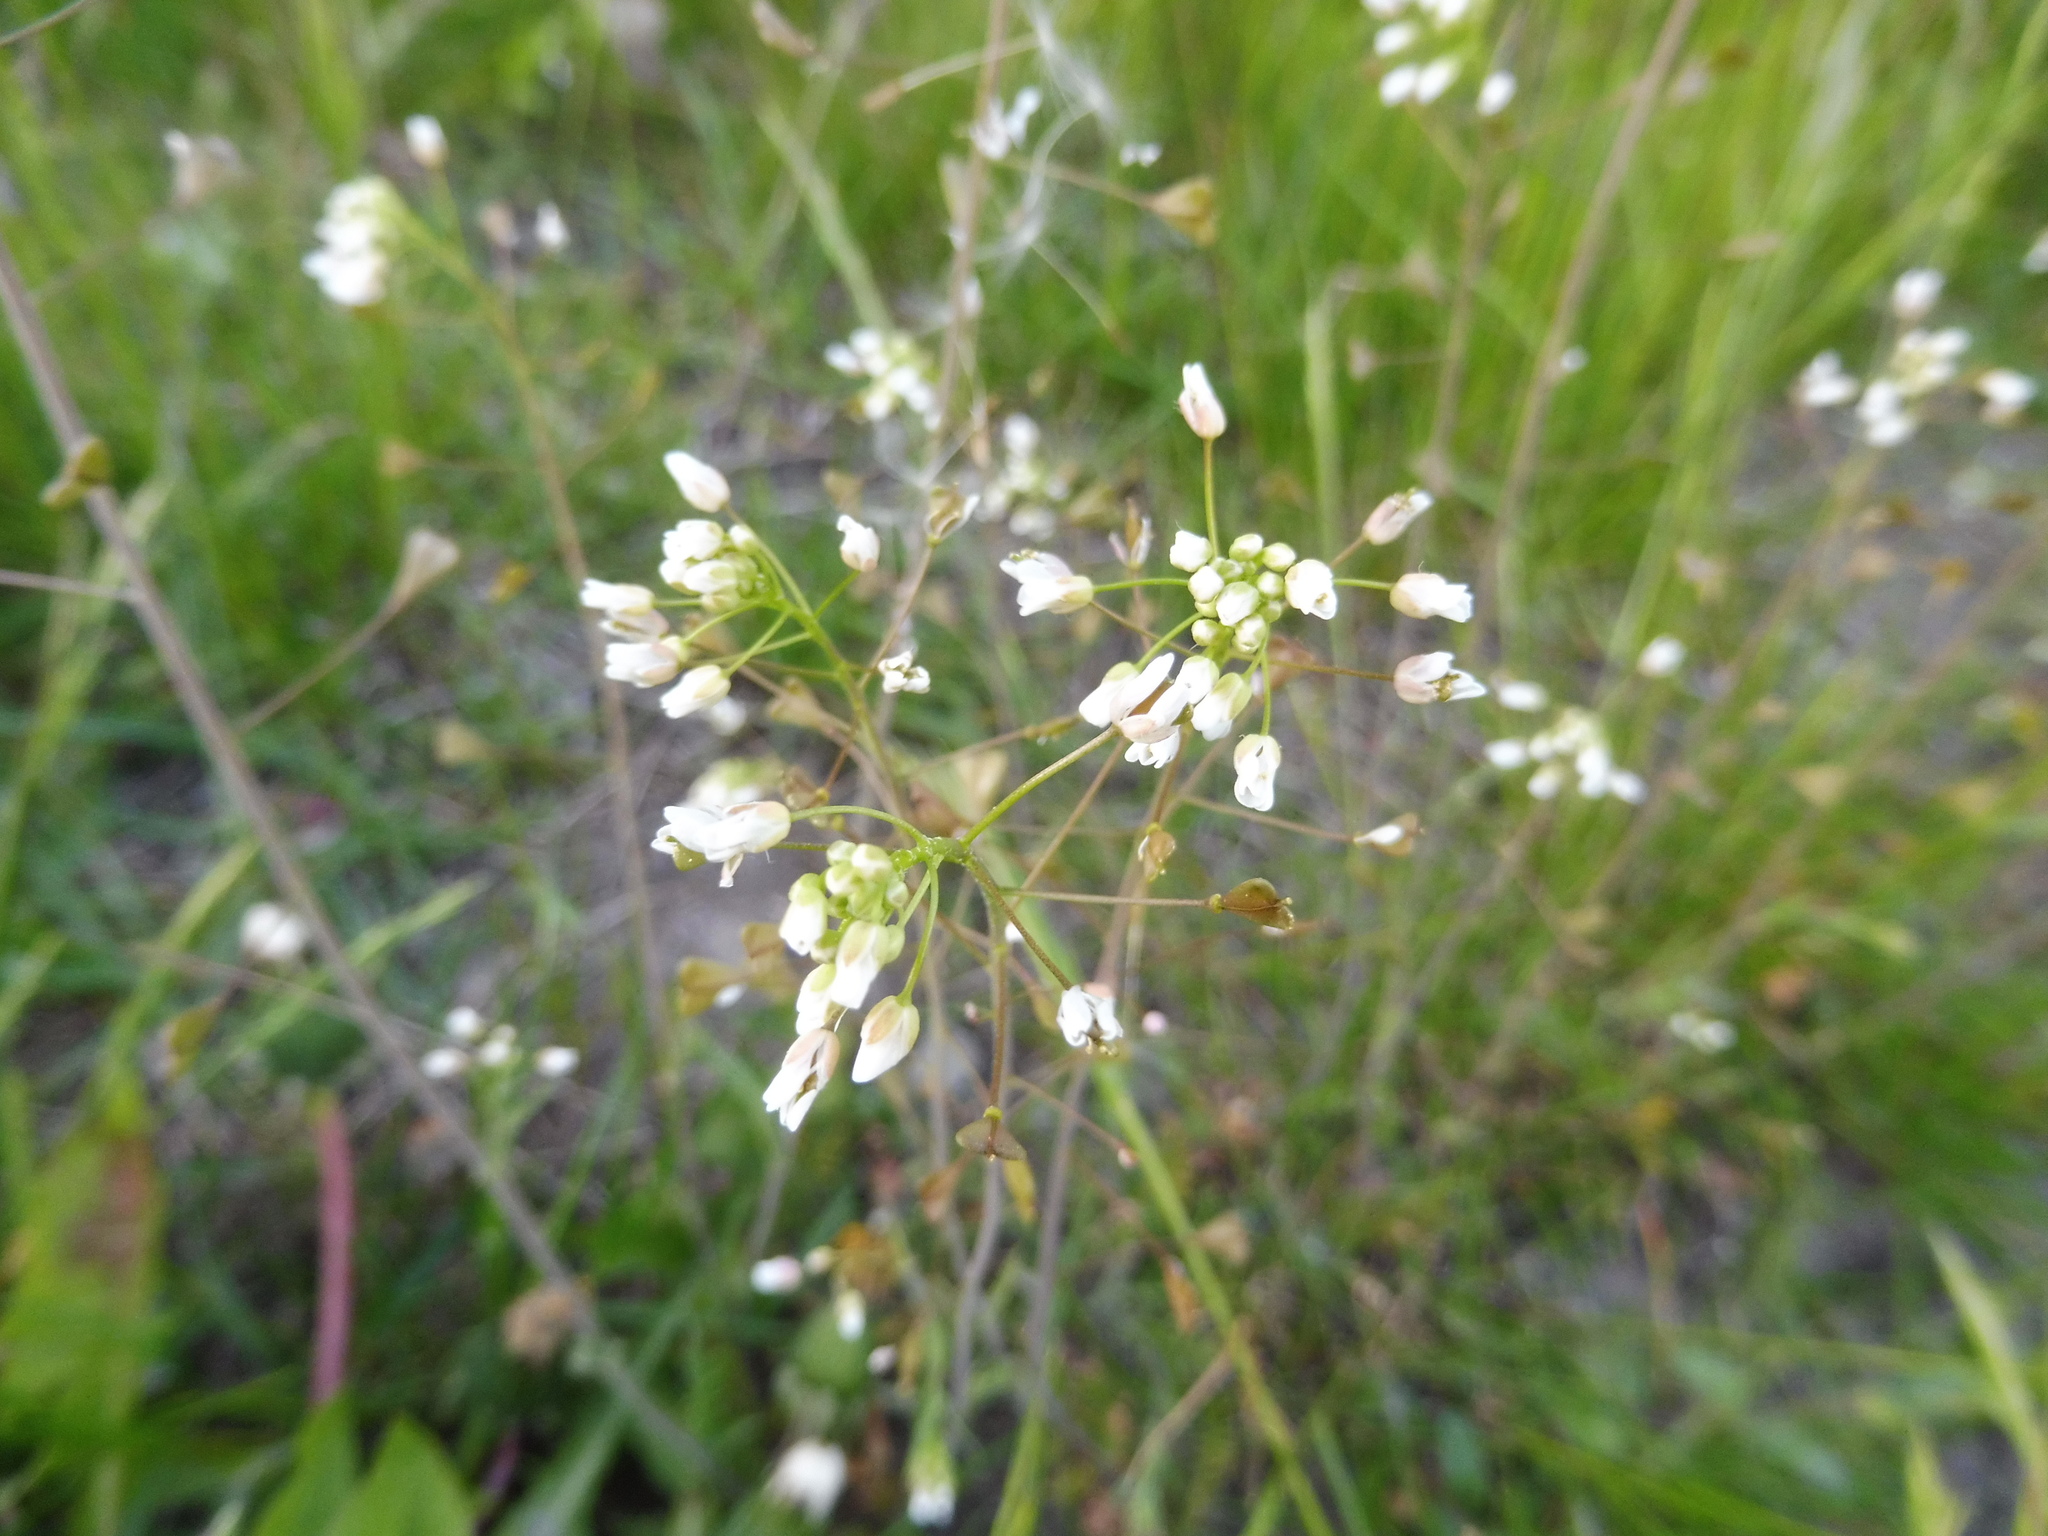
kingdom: Plantae
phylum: Tracheophyta
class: Magnoliopsida
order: Brassicales
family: Brassicaceae
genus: Capsella
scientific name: Capsella bursa-pastoris
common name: Shepherd's purse
